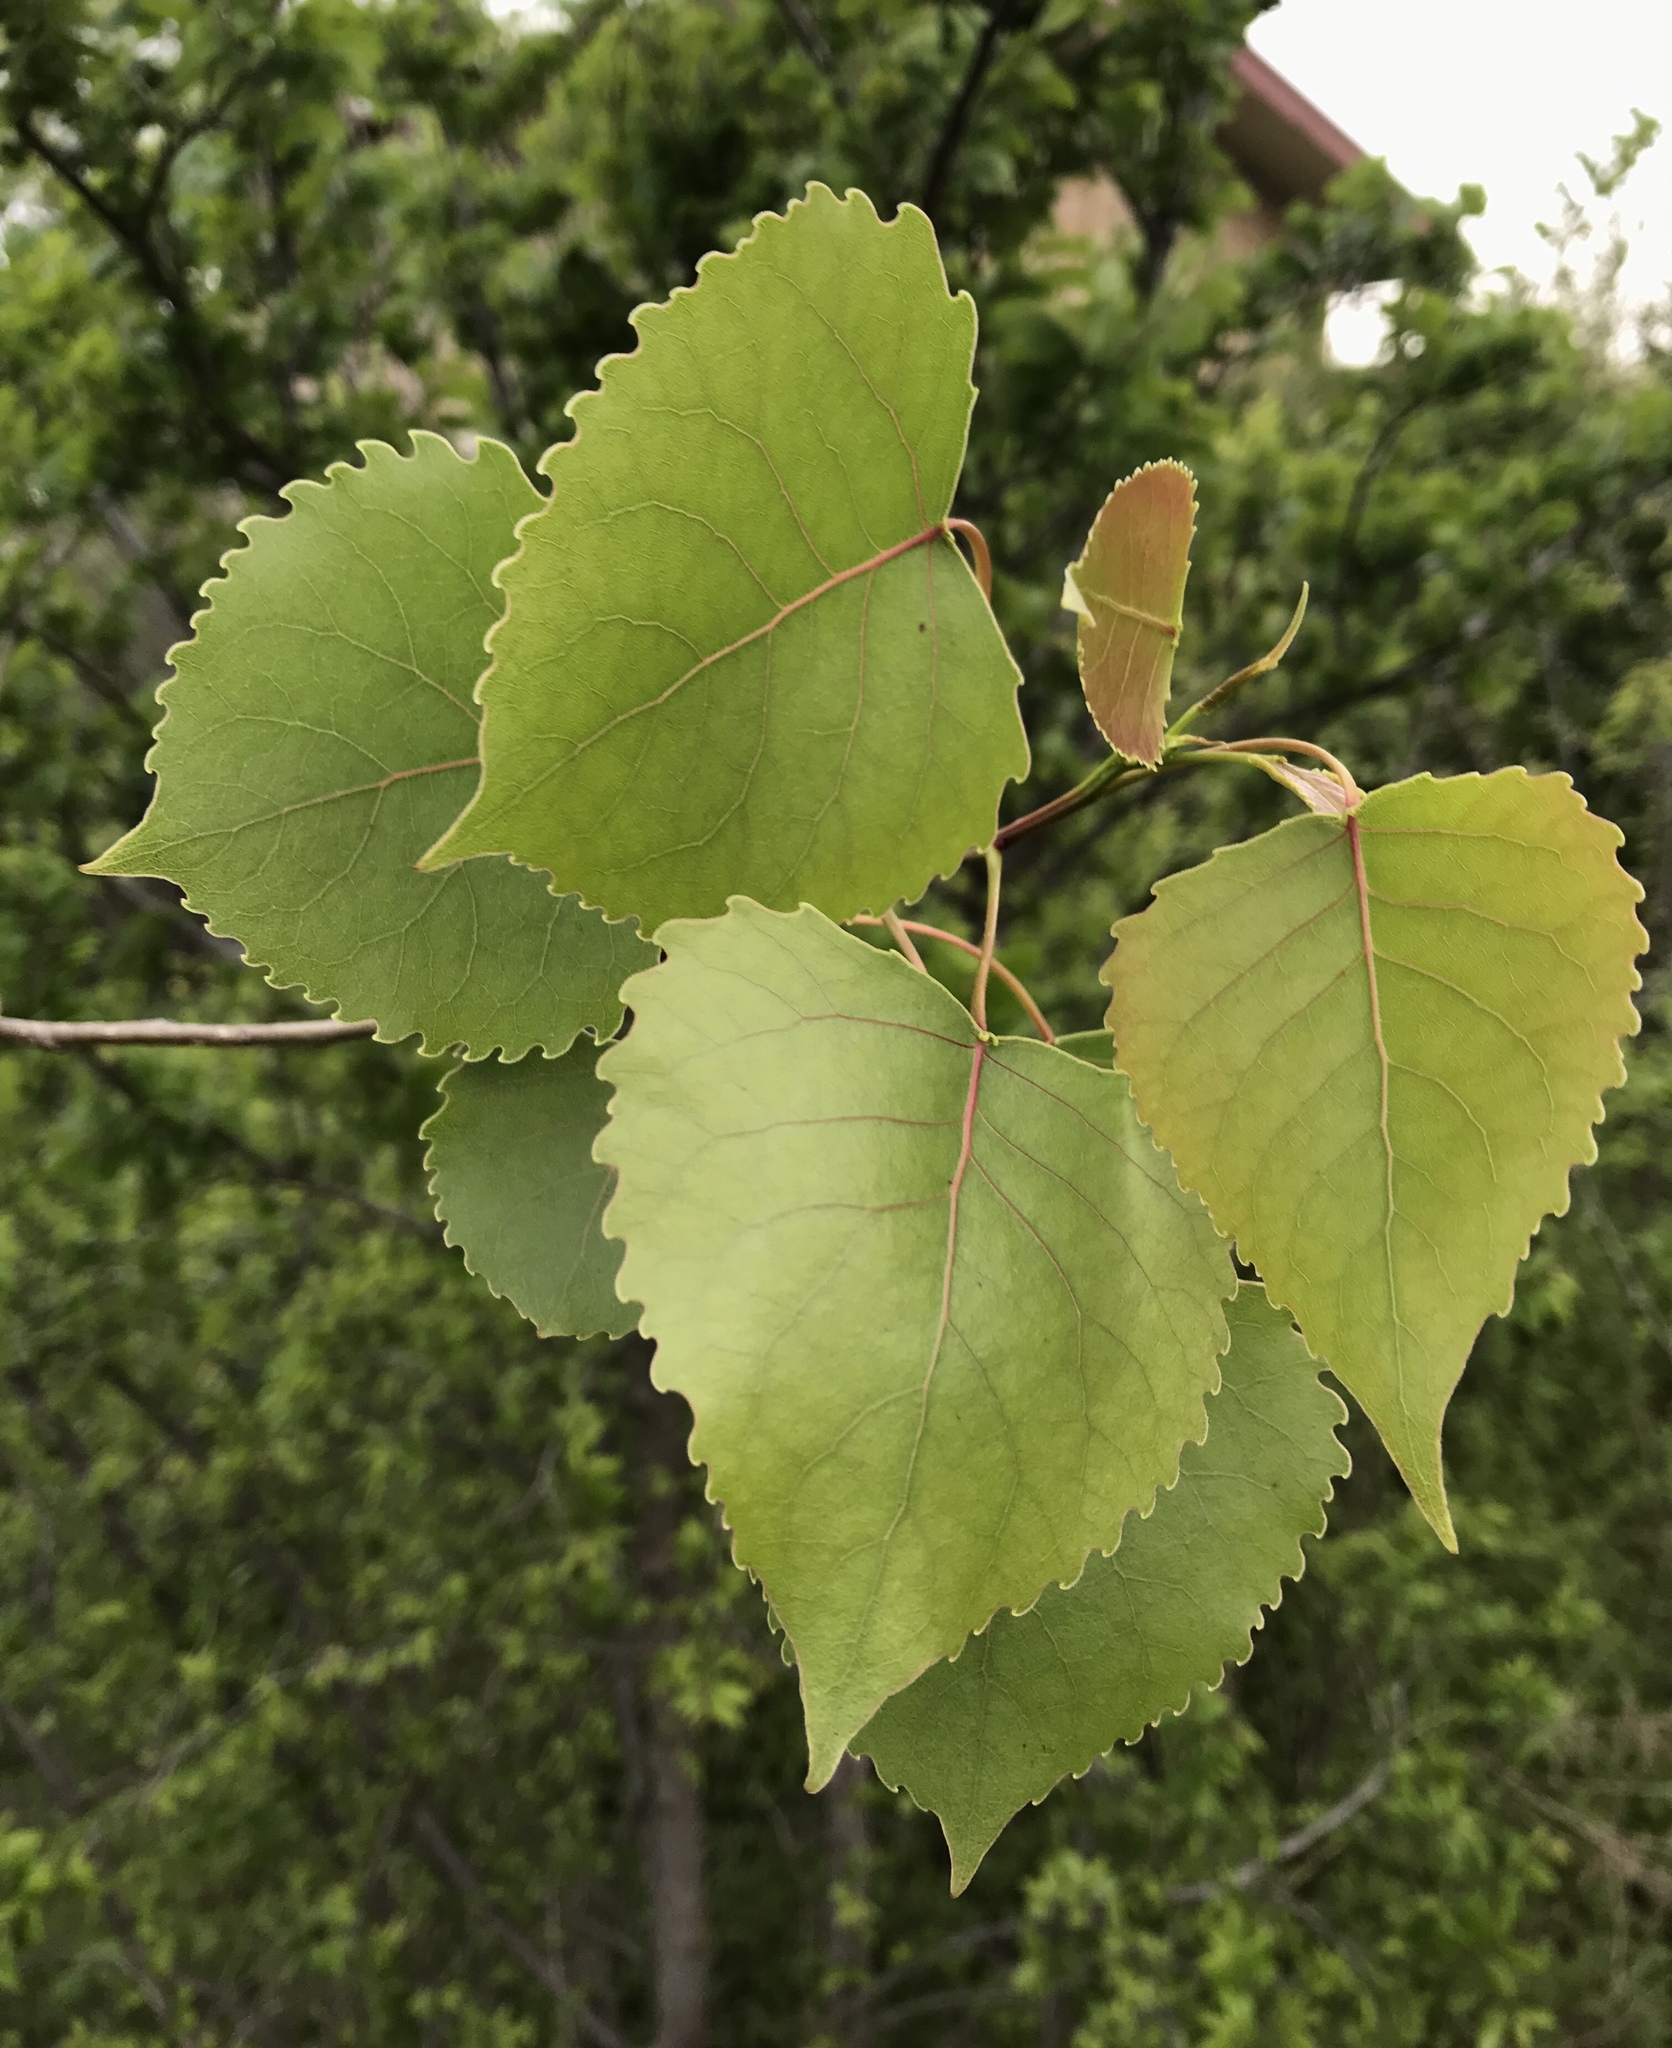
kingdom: Plantae
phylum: Tracheophyta
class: Magnoliopsida
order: Malpighiales
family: Salicaceae
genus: Populus
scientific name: Populus deltoides
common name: Eastern cottonwood
